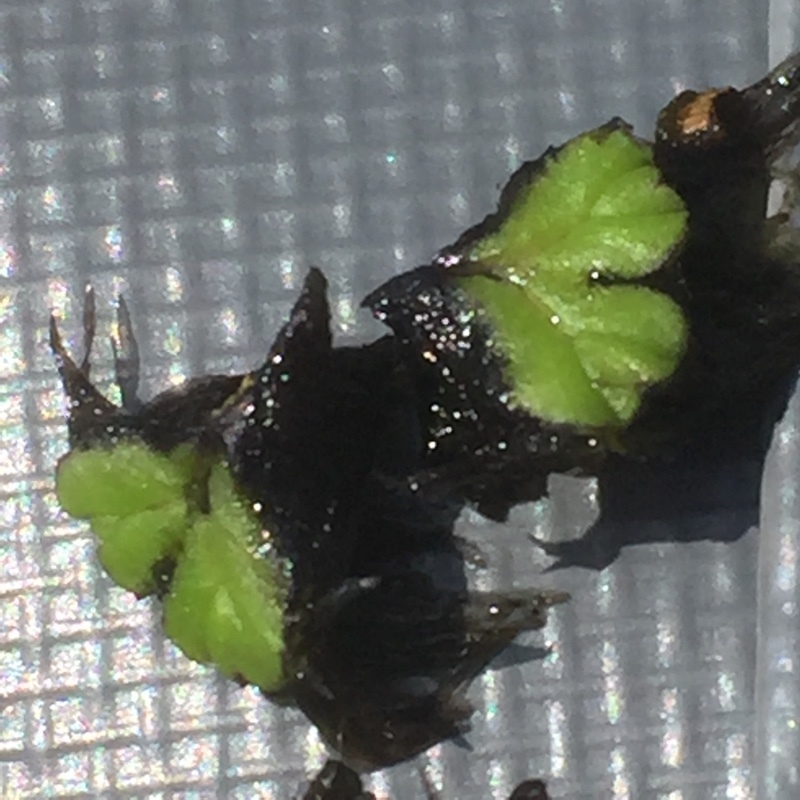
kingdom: Plantae
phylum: Marchantiophyta
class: Marchantiopsida
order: Marchantiales
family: Ricciaceae
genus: Ricciocarpos
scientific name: Ricciocarpos natans
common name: Purple-fringed liverwort
